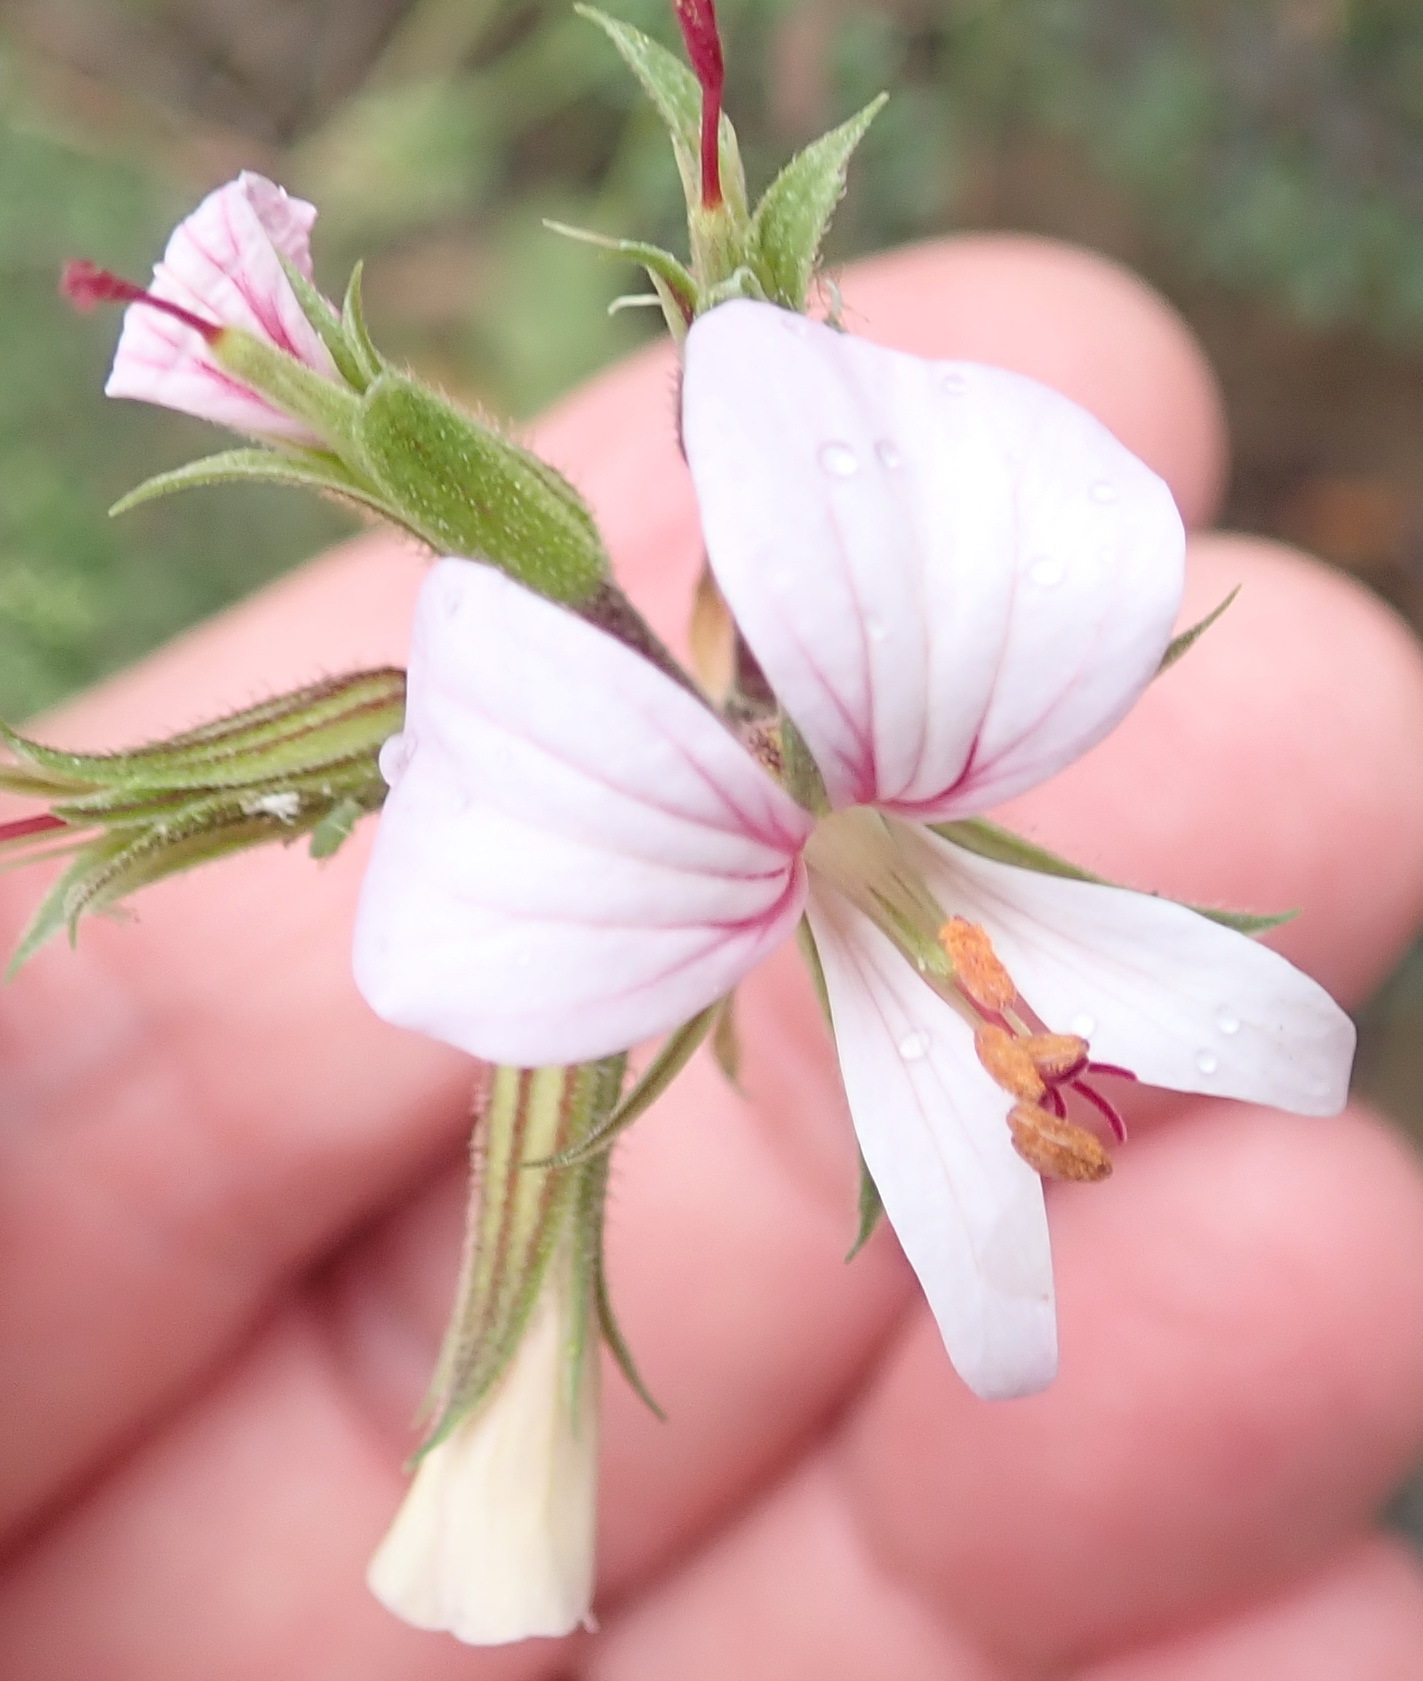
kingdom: Plantae
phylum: Tracheophyta
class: Magnoliopsida
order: Geraniales
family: Geraniaceae
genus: Pelargonium
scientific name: Pelargonium myrrhifolium
